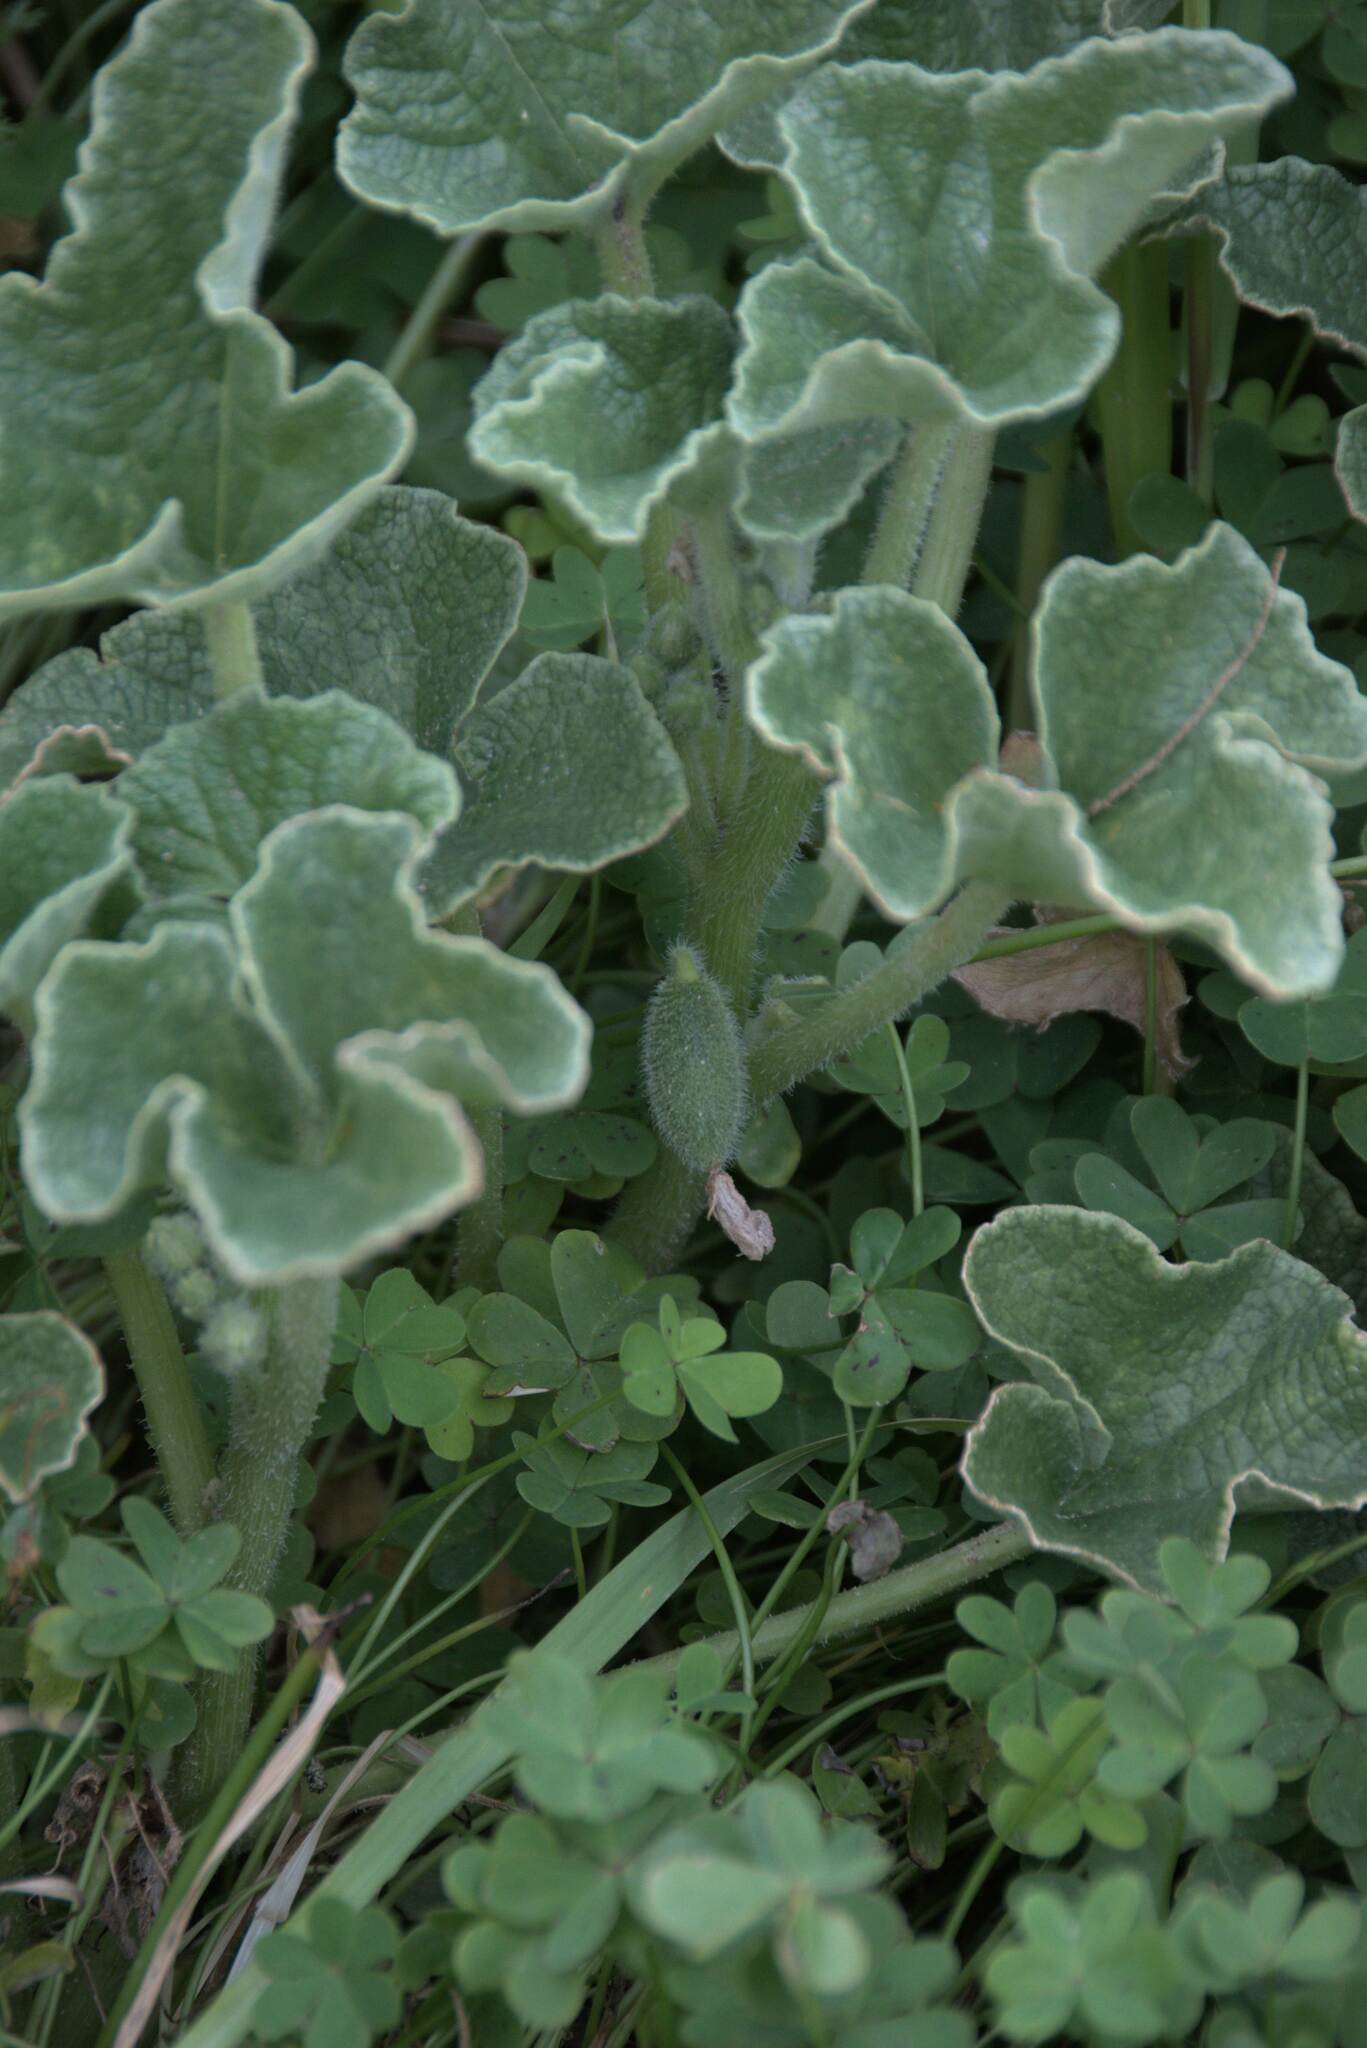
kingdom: Plantae
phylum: Tracheophyta
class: Magnoliopsida
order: Cucurbitales
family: Cucurbitaceae
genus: Ecballium
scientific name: Ecballium elaterium
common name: Squirting cucumber
